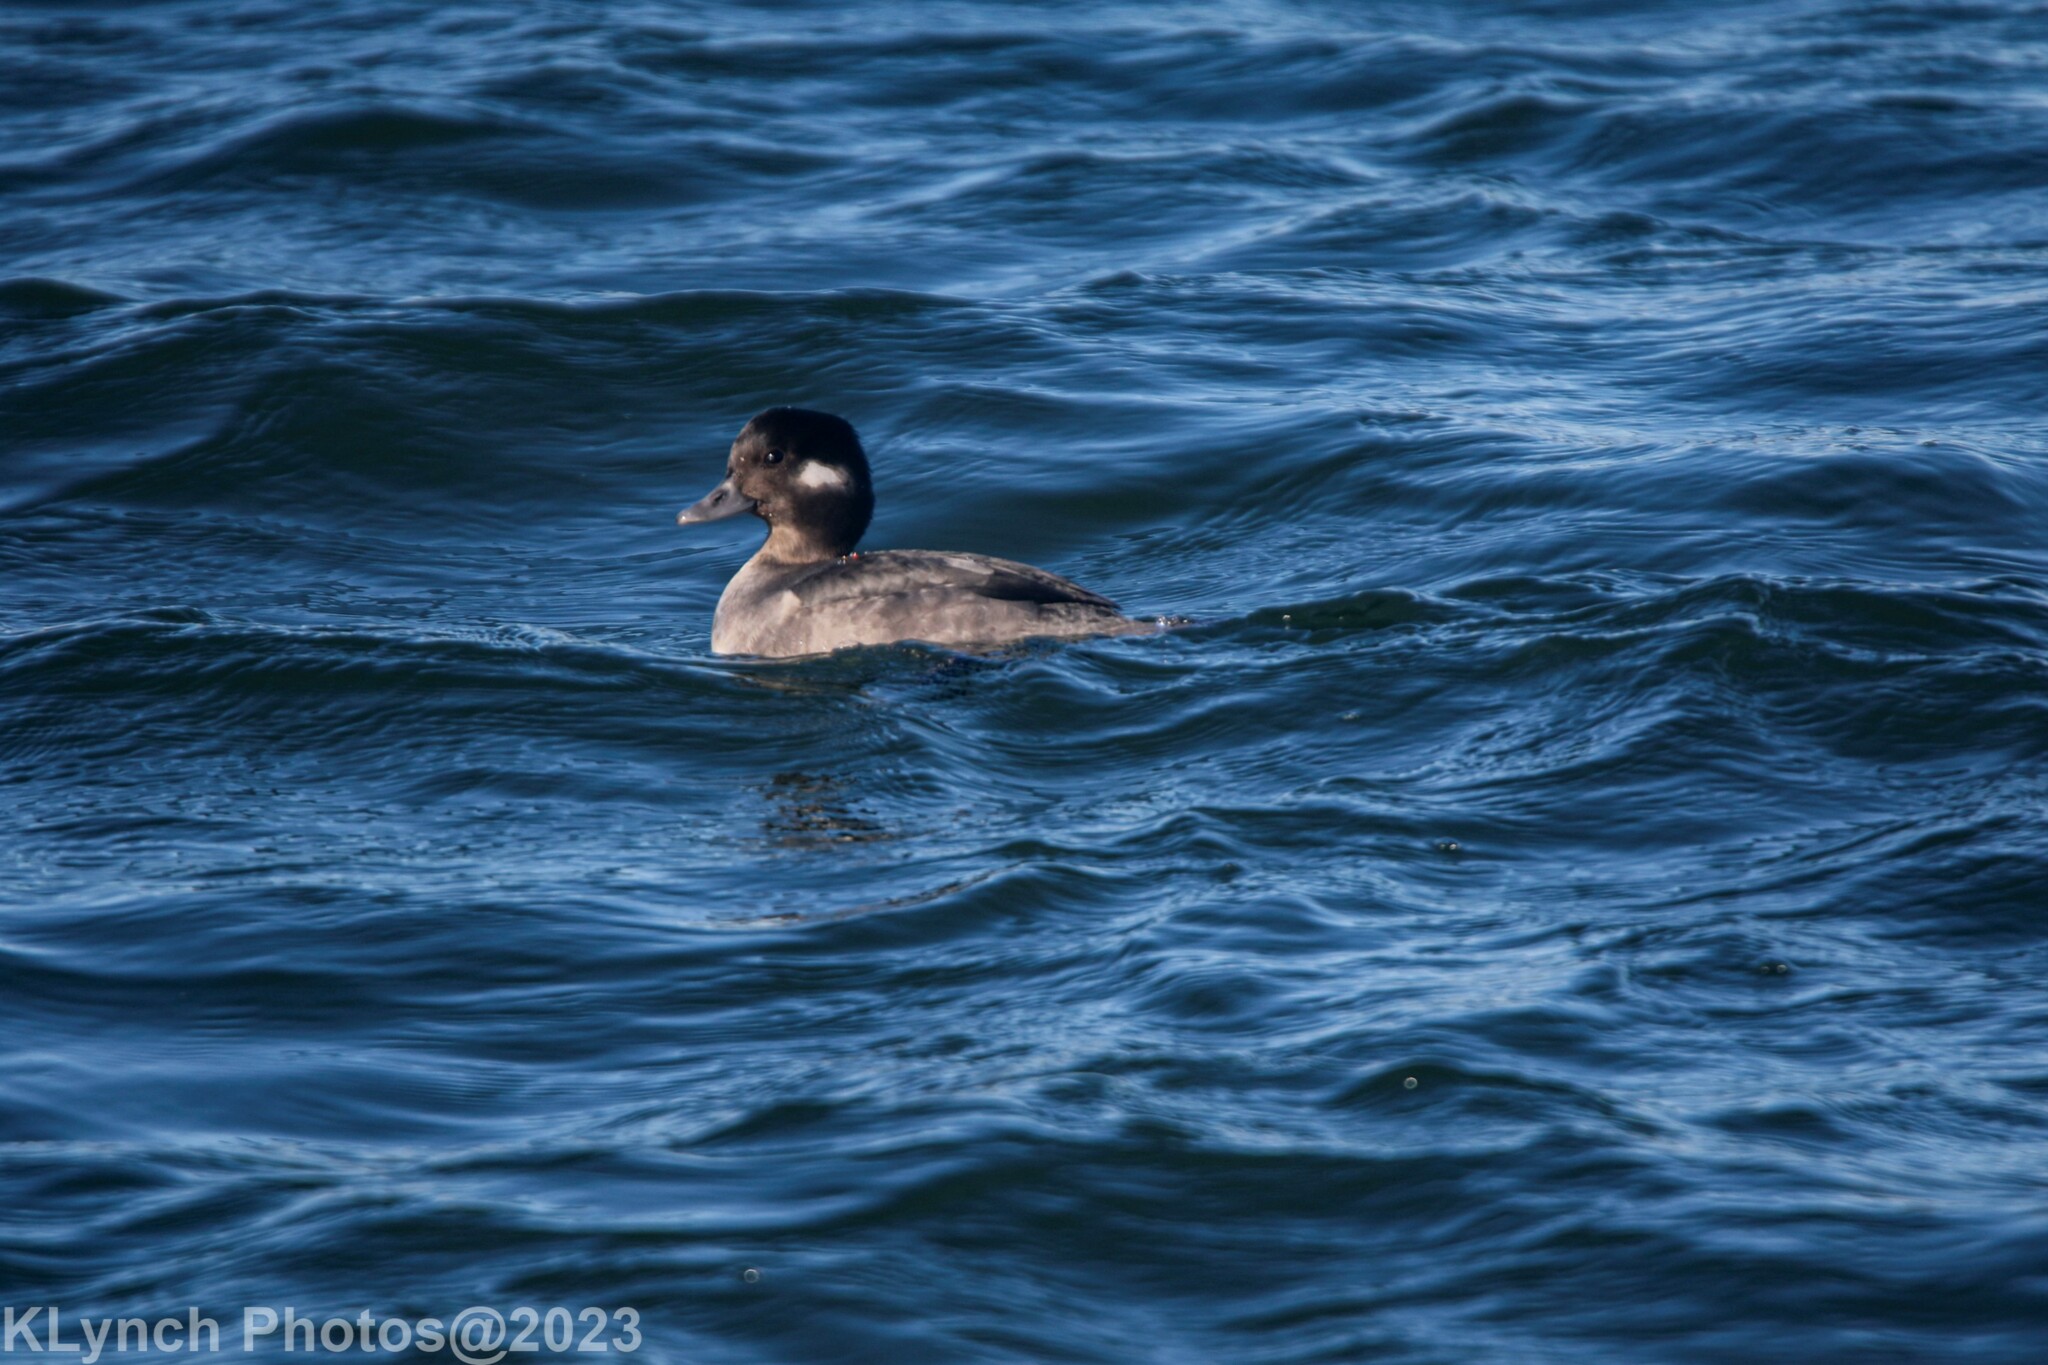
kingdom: Animalia
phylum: Chordata
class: Aves
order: Anseriformes
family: Anatidae
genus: Bucephala
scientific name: Bucephala albeola
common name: Bufflehead
